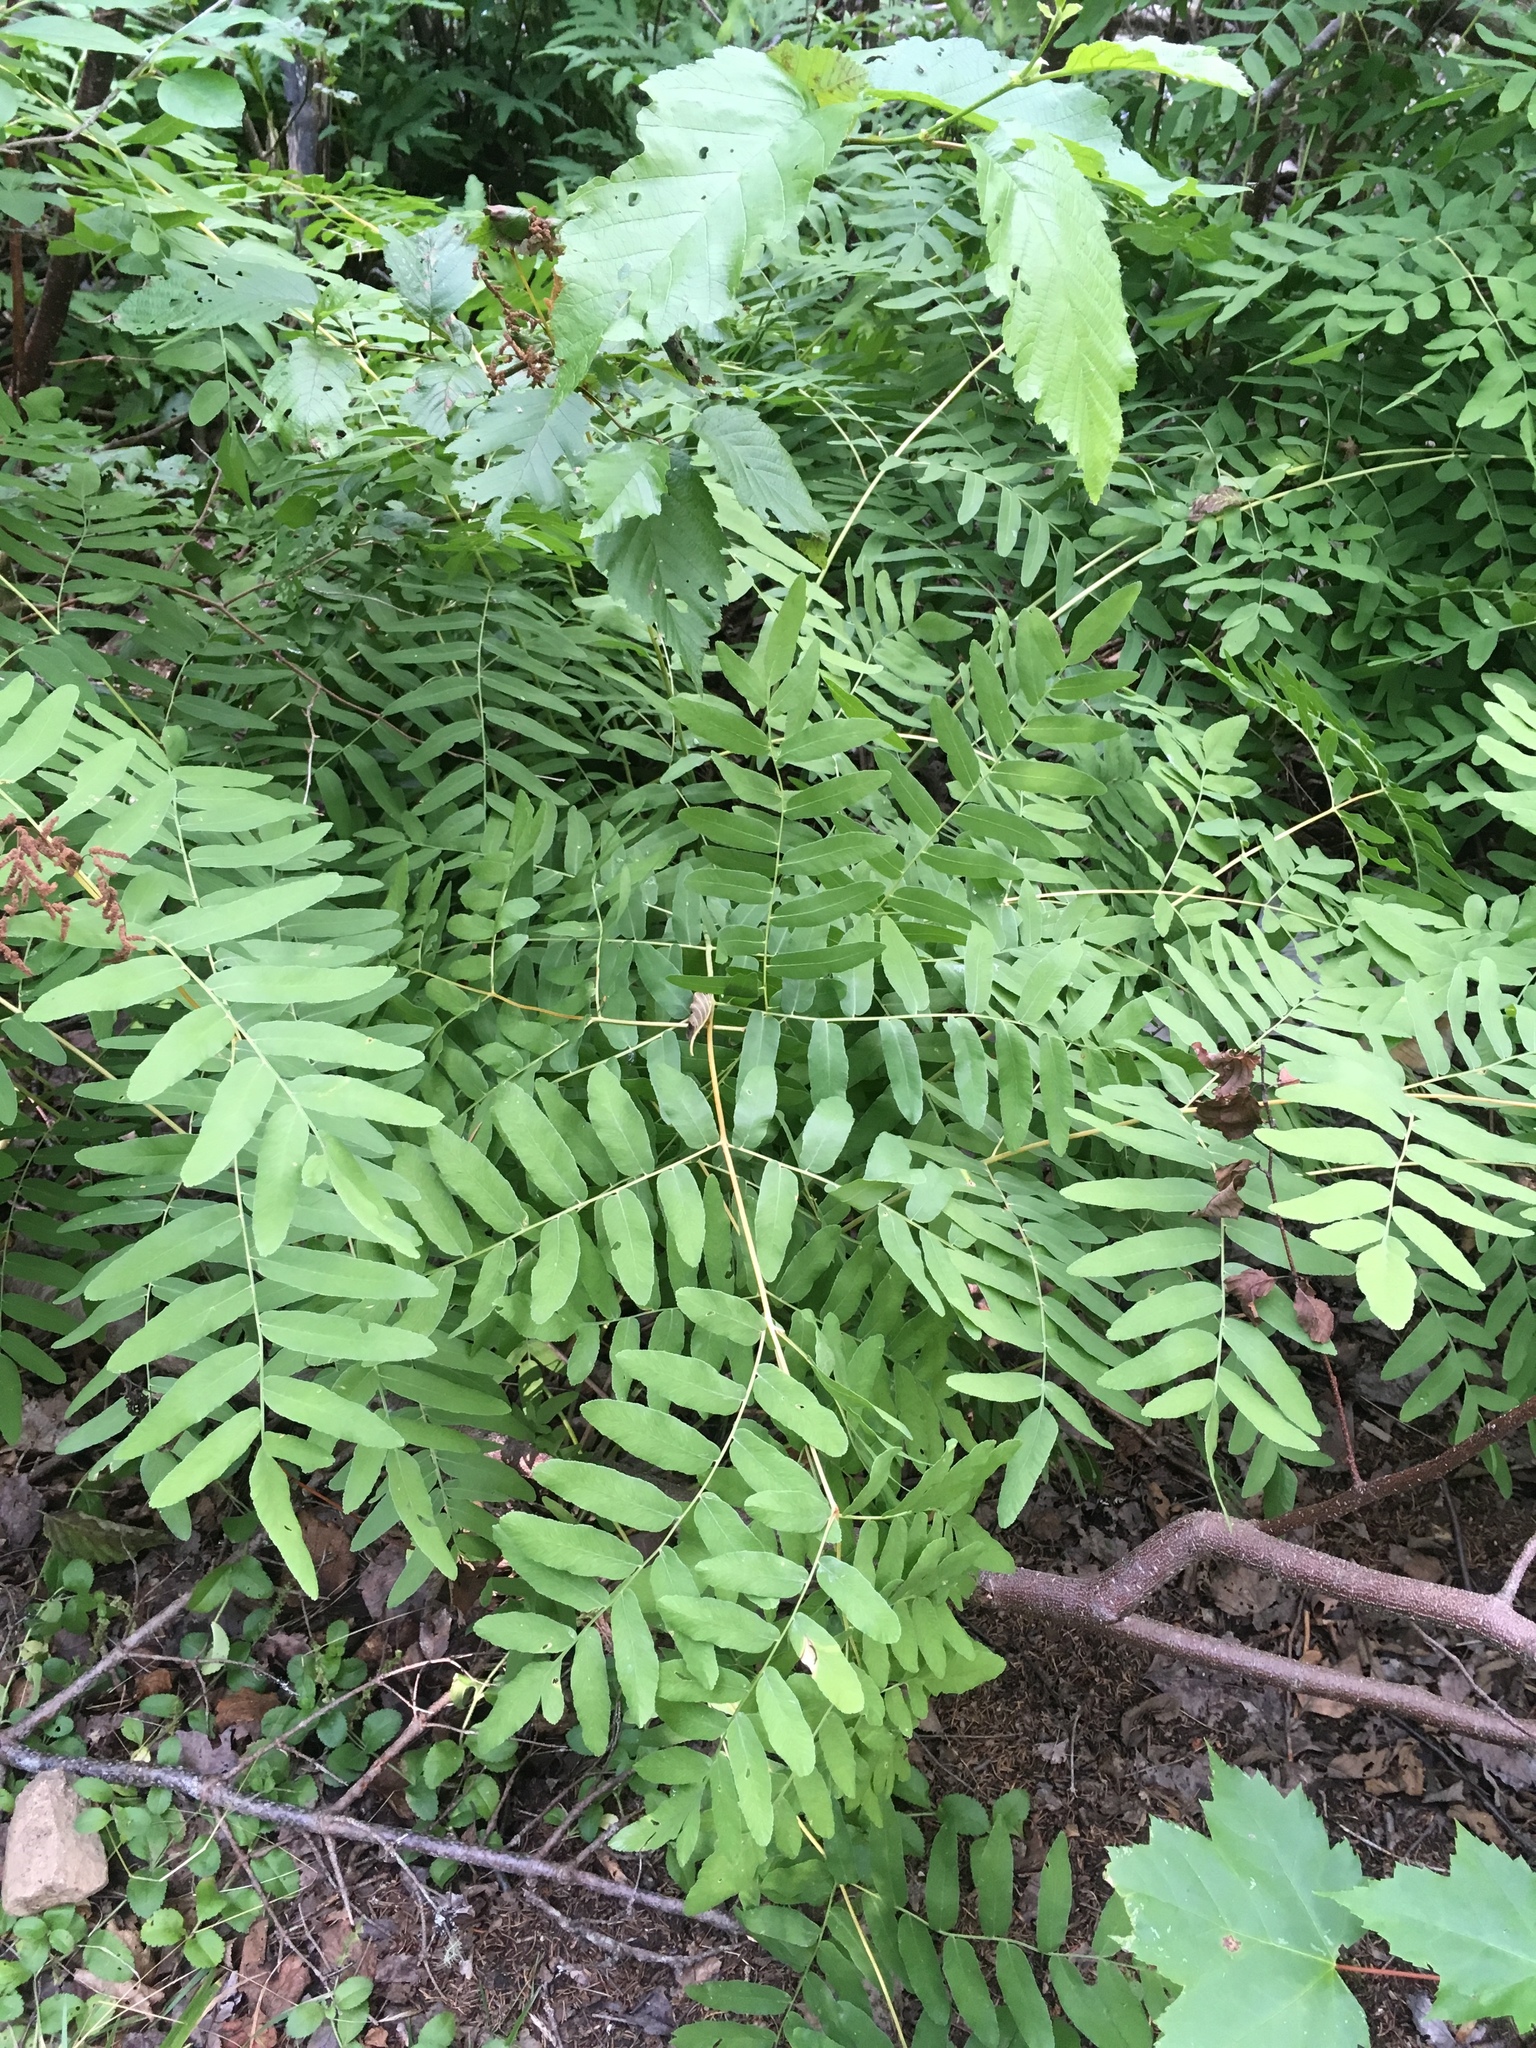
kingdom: Plantae
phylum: Tracheophyta
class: Polypodiopsida
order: Osmundales
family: Osmundaceae
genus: Osmunda
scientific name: Osmunda spectabilis
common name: American royal fern
